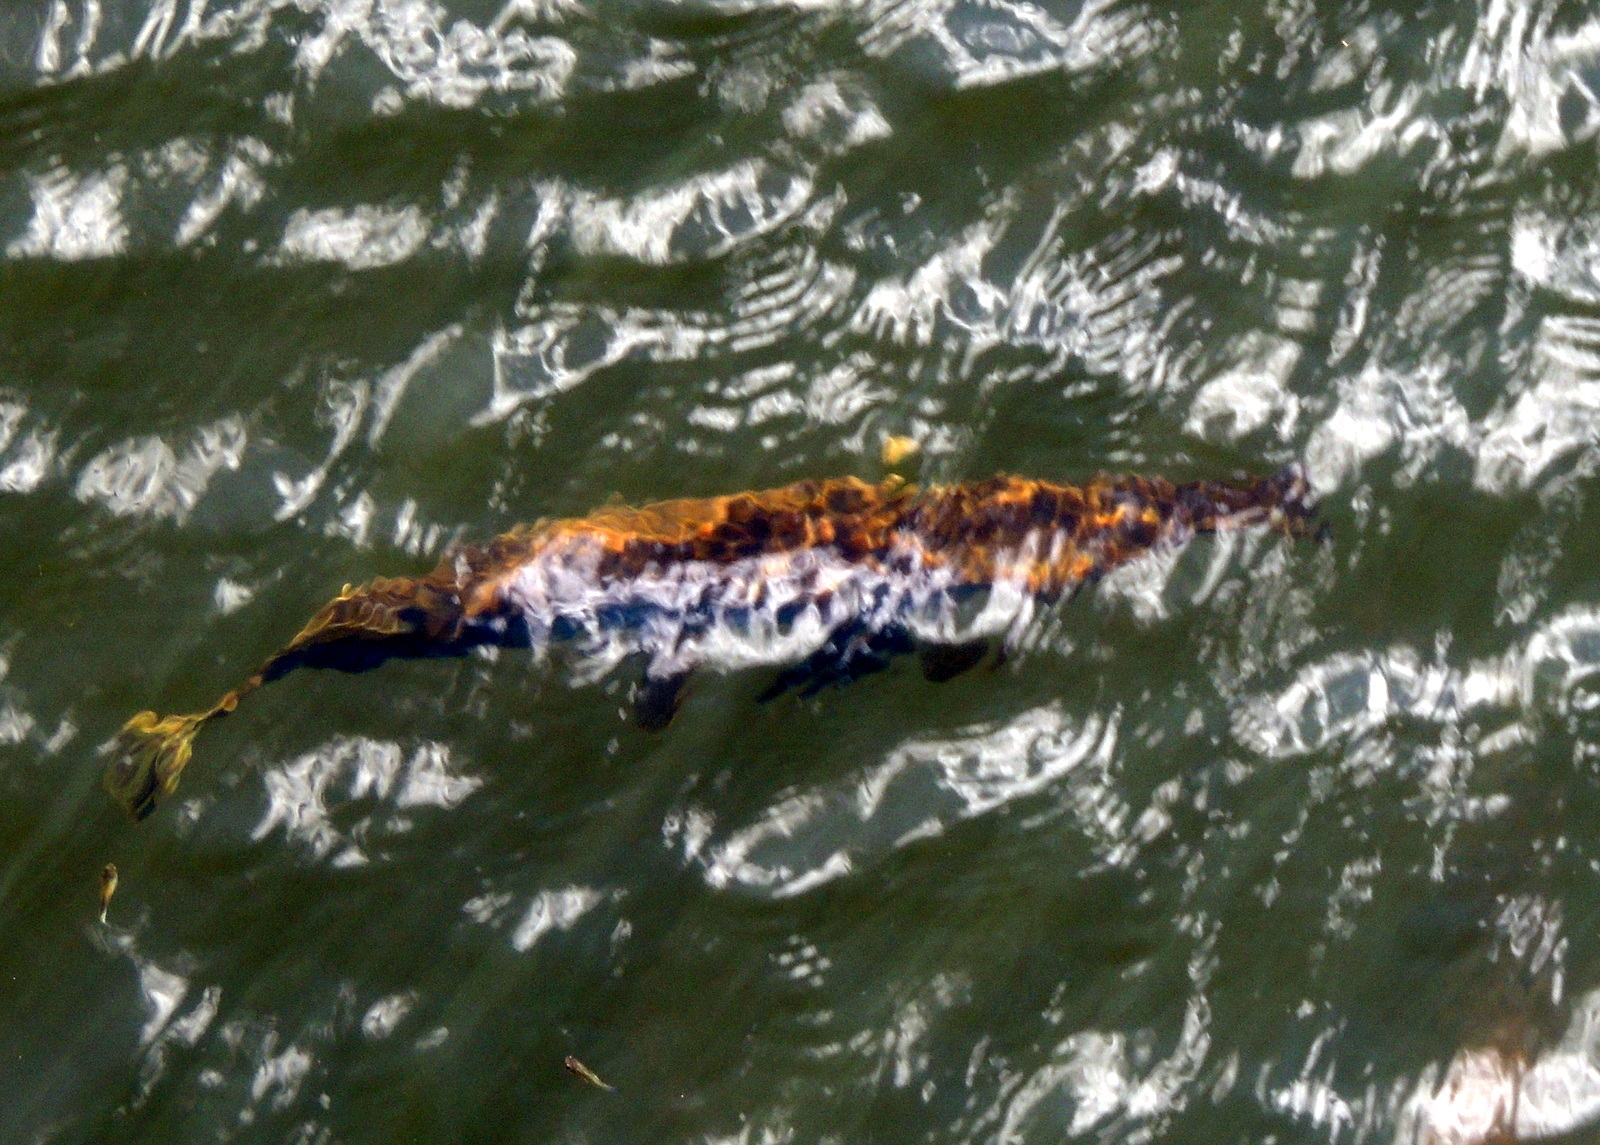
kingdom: Animalia
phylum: Chordata
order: Lepisosteiformes
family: Lepisosteidae
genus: Lepisosteus
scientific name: Lepisosteus platyrhincus
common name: Florida gar
